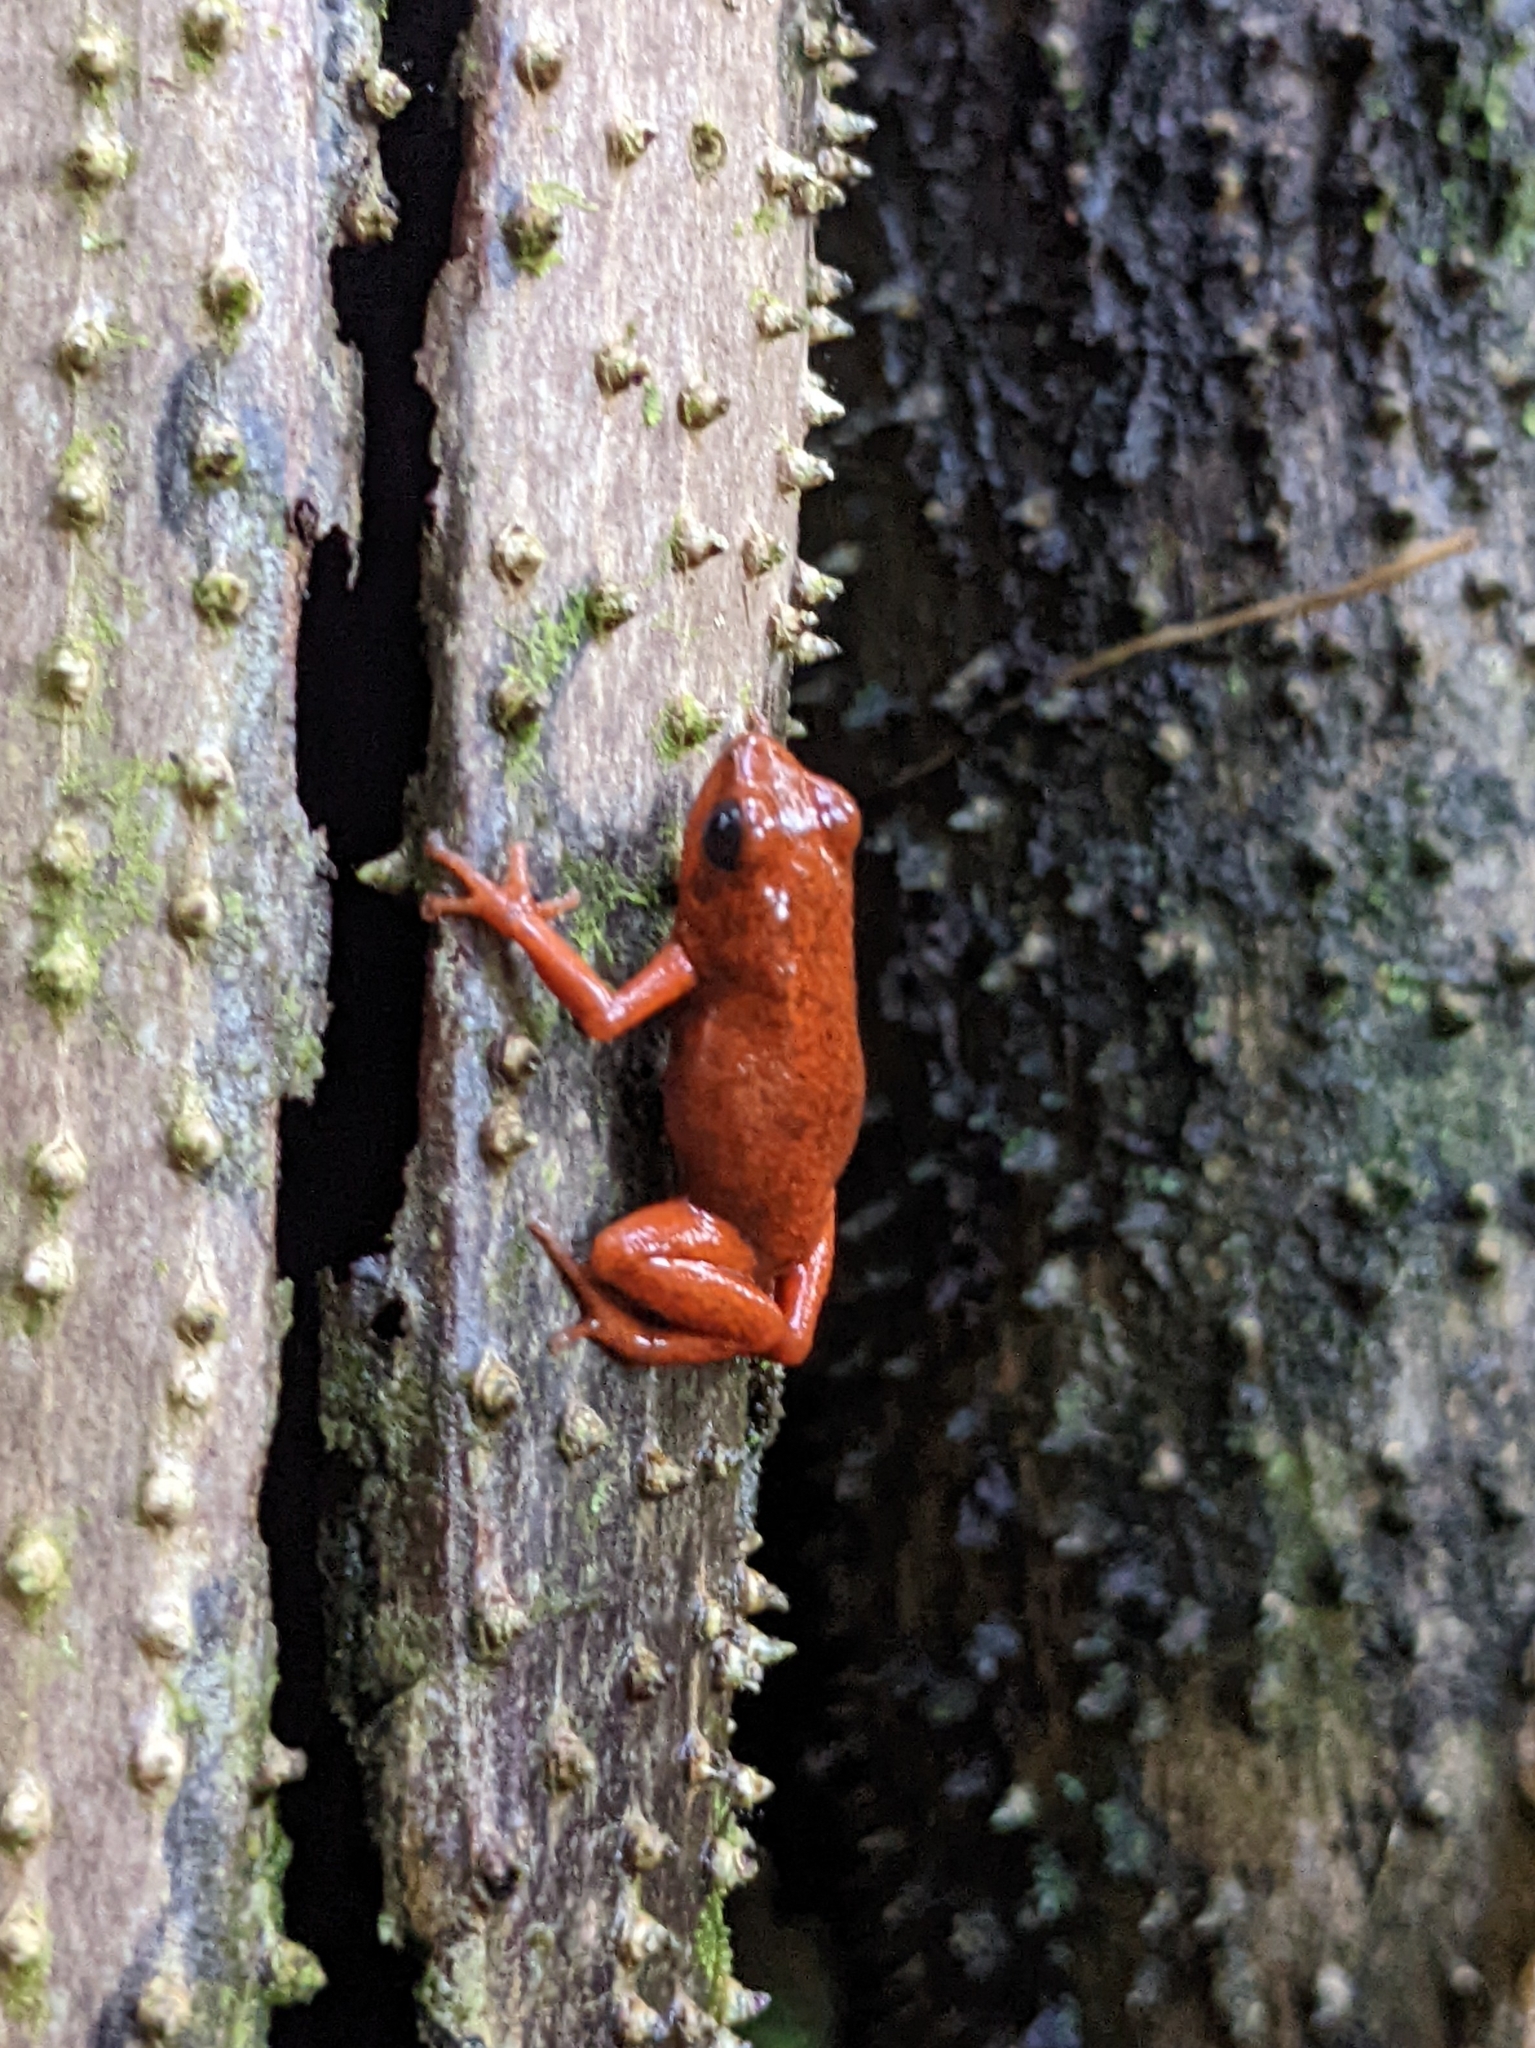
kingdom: Animalia
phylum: Chordata
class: Amphibia
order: Anura
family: Dendrobatidae
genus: Oophaga
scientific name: Oophaga pumilio
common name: Flaming poison frog
